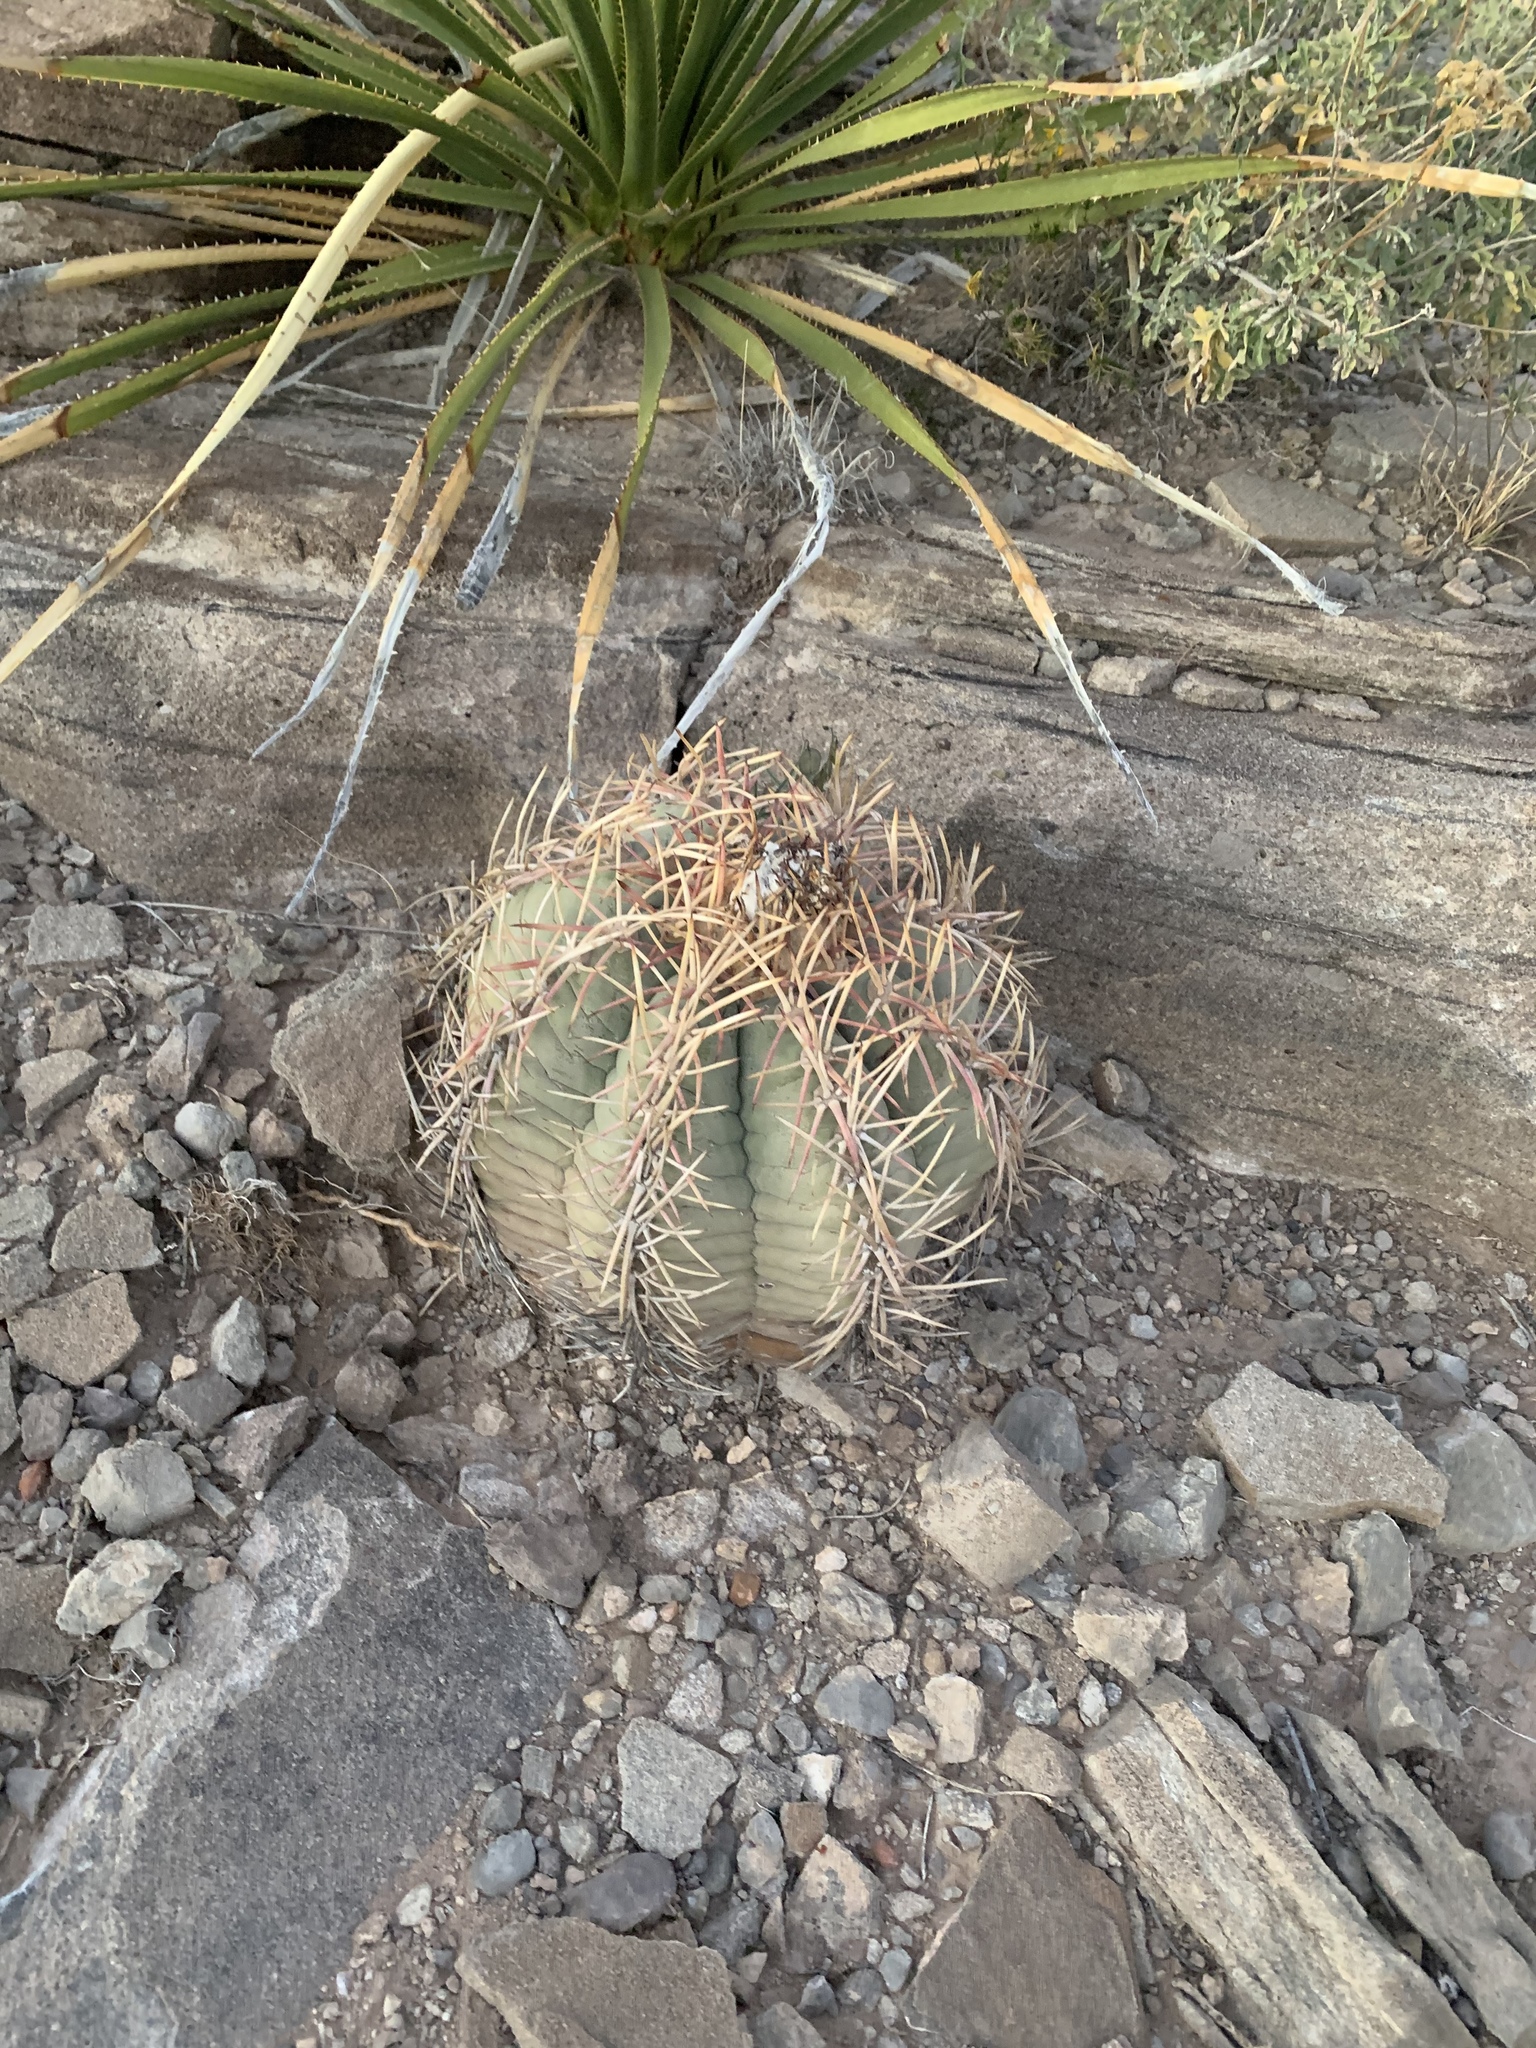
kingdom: Plantae
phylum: Tracheophyta
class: Magnoliopsida
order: Caryophyllales
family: Cactaceae
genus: Echinocactus
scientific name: Echinocactus horizonthalonius
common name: Devilshead
